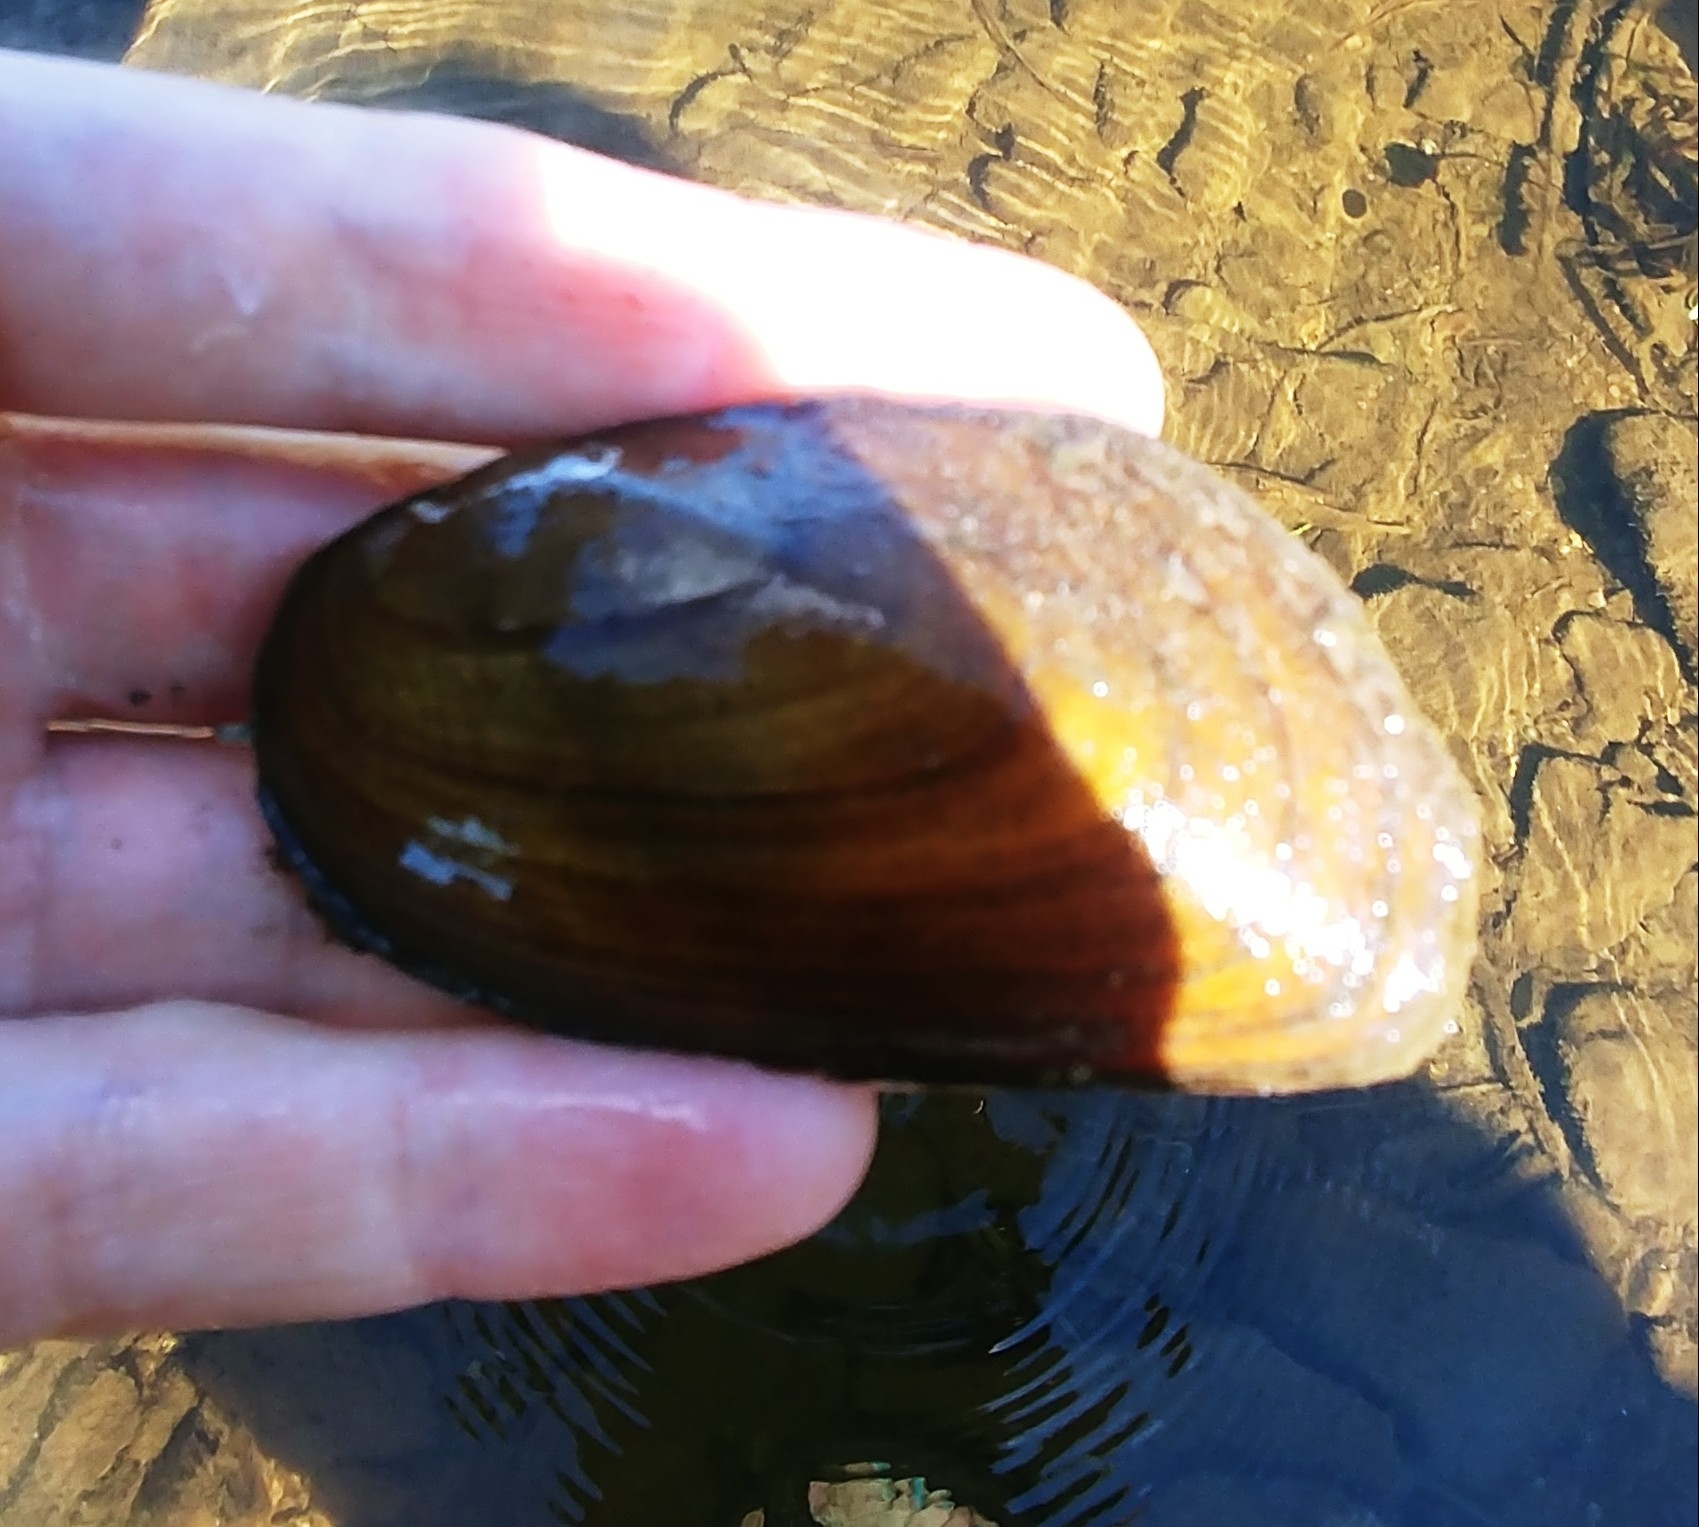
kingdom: Animalia
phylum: Mollusca
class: Bivalvia
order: Unionida
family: Unionidae
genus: Elliptio
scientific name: Elliptio complanata
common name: Eastern elliptio
